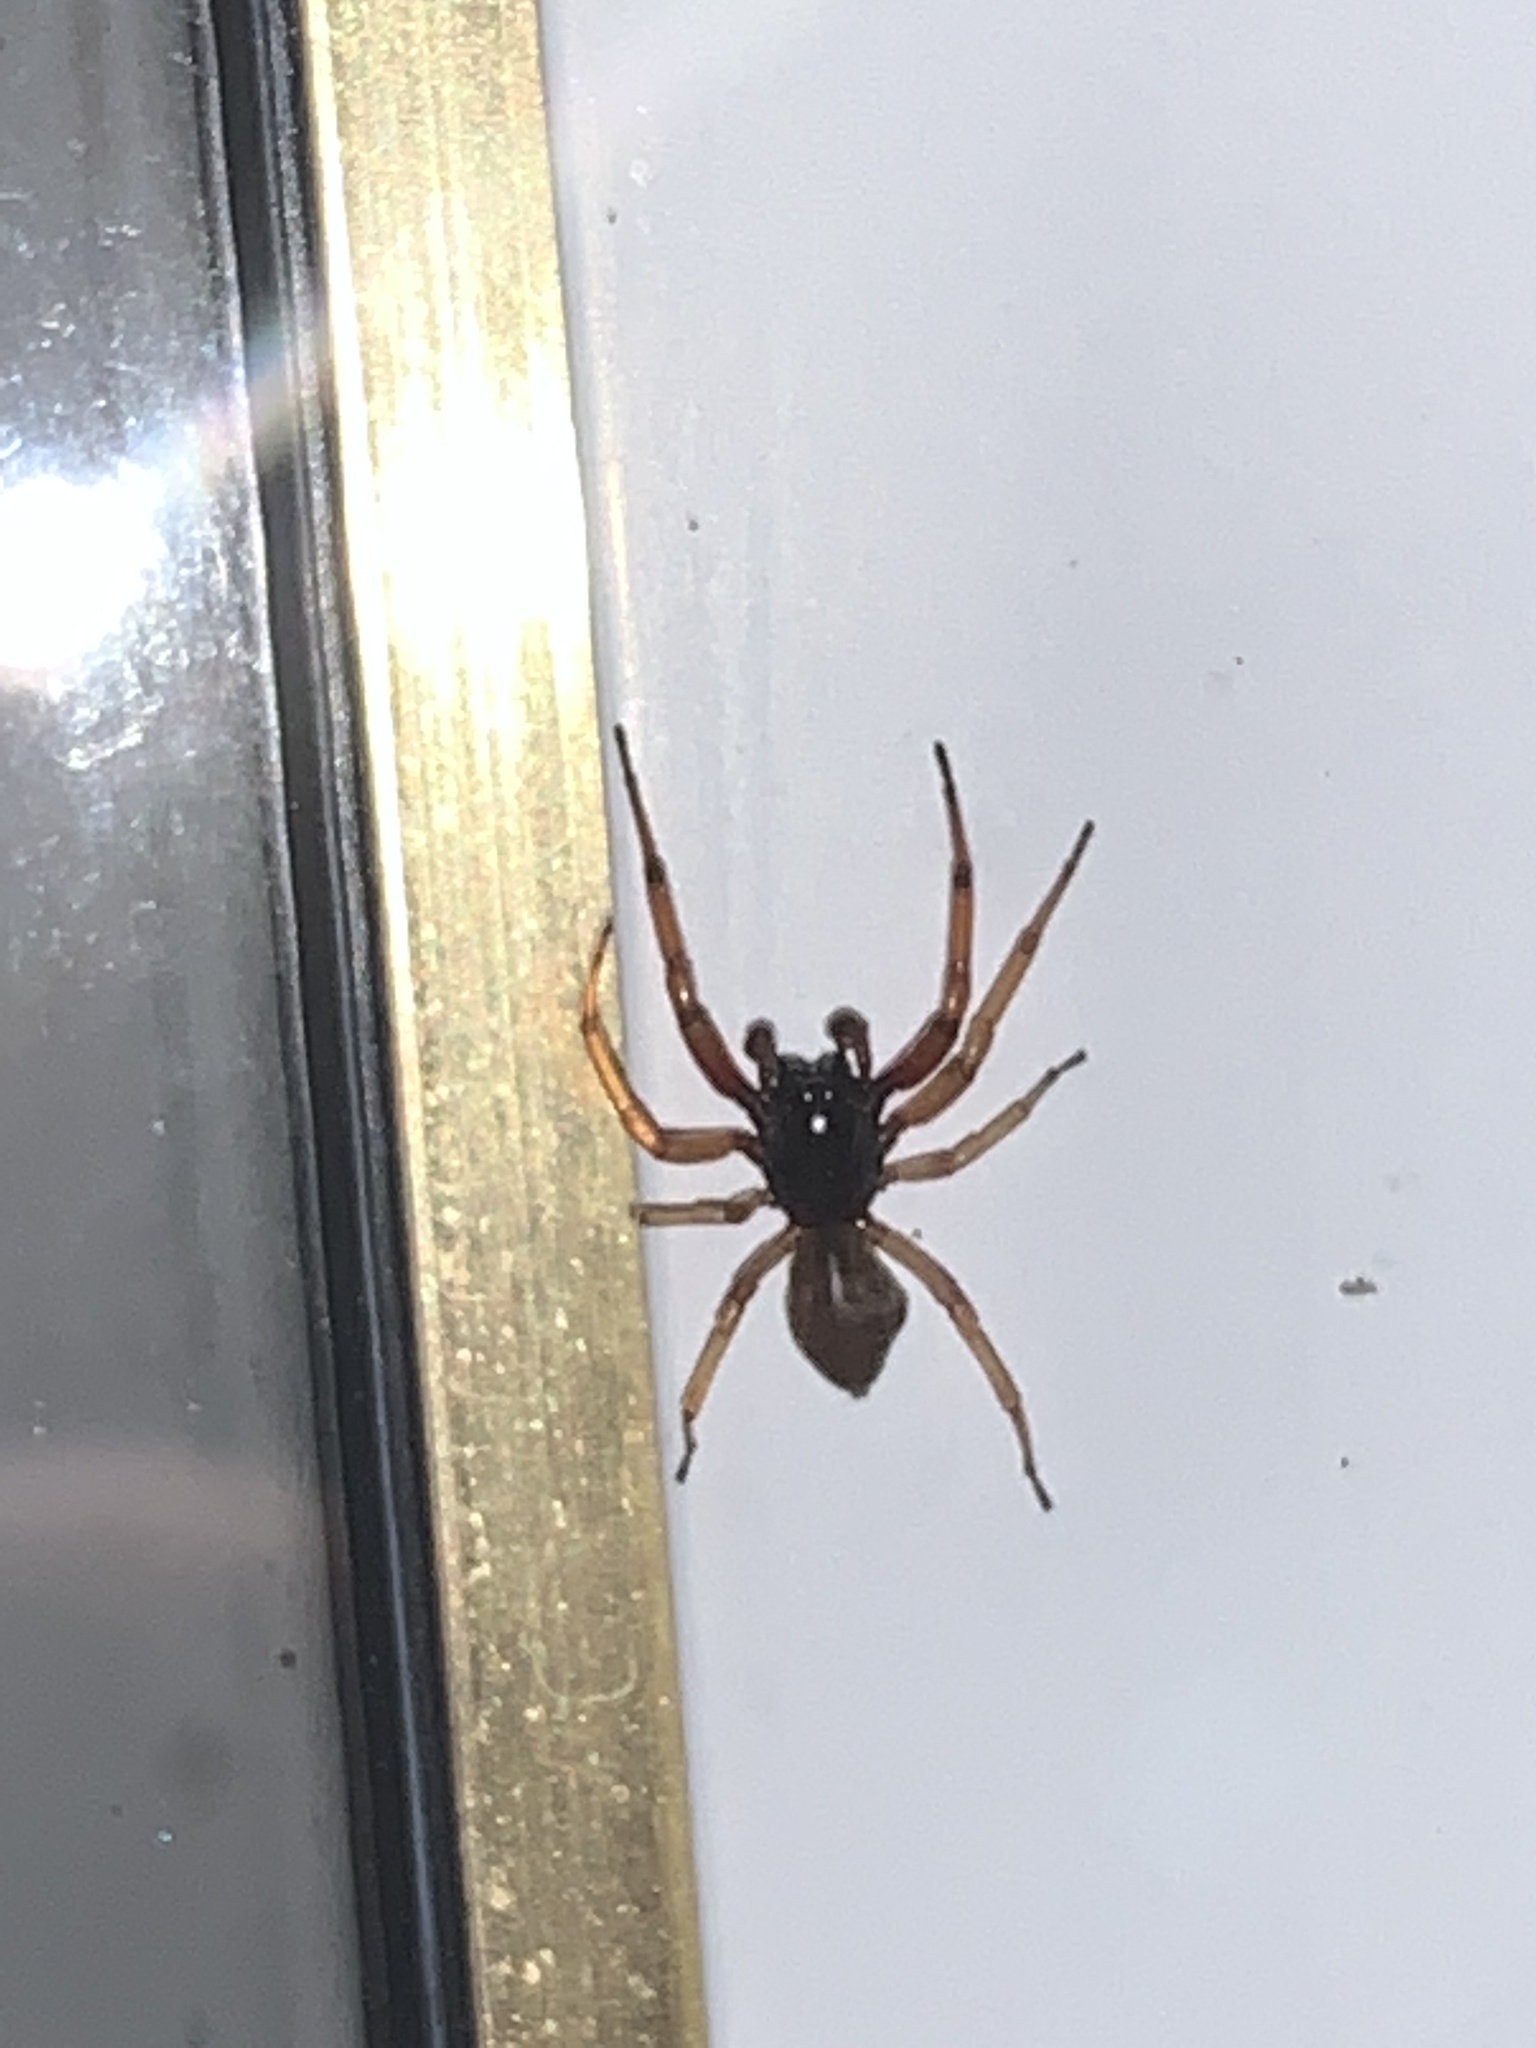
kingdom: Animalia
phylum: Arthropoda
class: Arachnida
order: Araneae
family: Trachelidae
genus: Trachelas
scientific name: Trachelas tranquillus
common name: Broad-faced sac spider
